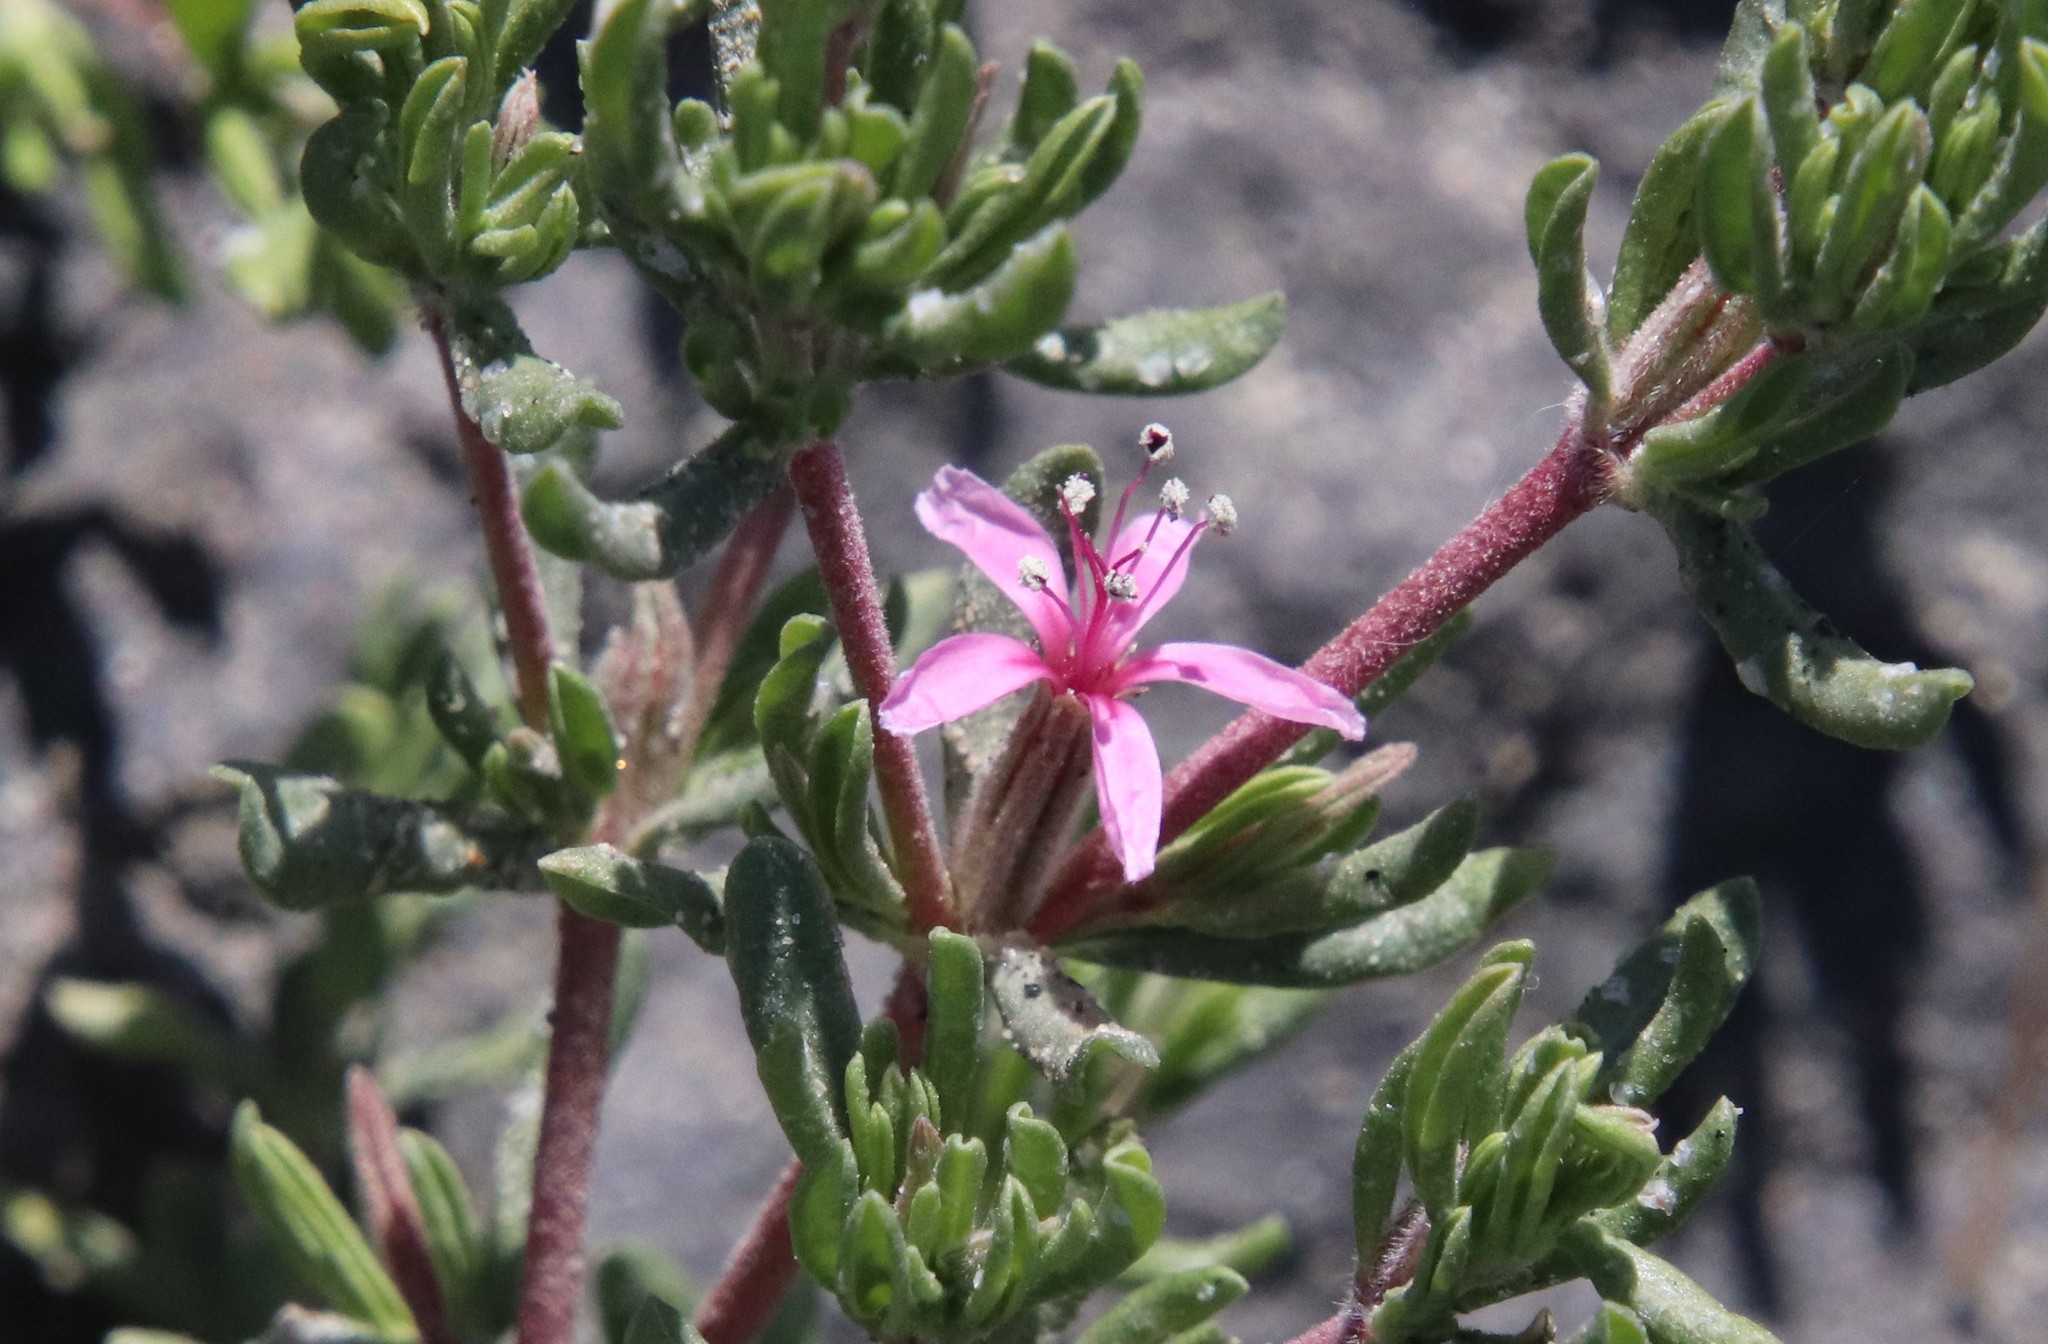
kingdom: Plantae
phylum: Tracheophyta
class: Magnoliopsida
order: Caryophyllales
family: Frankeniaceae
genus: Frankenia
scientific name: Frankenia salina
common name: Alkali seaheath
